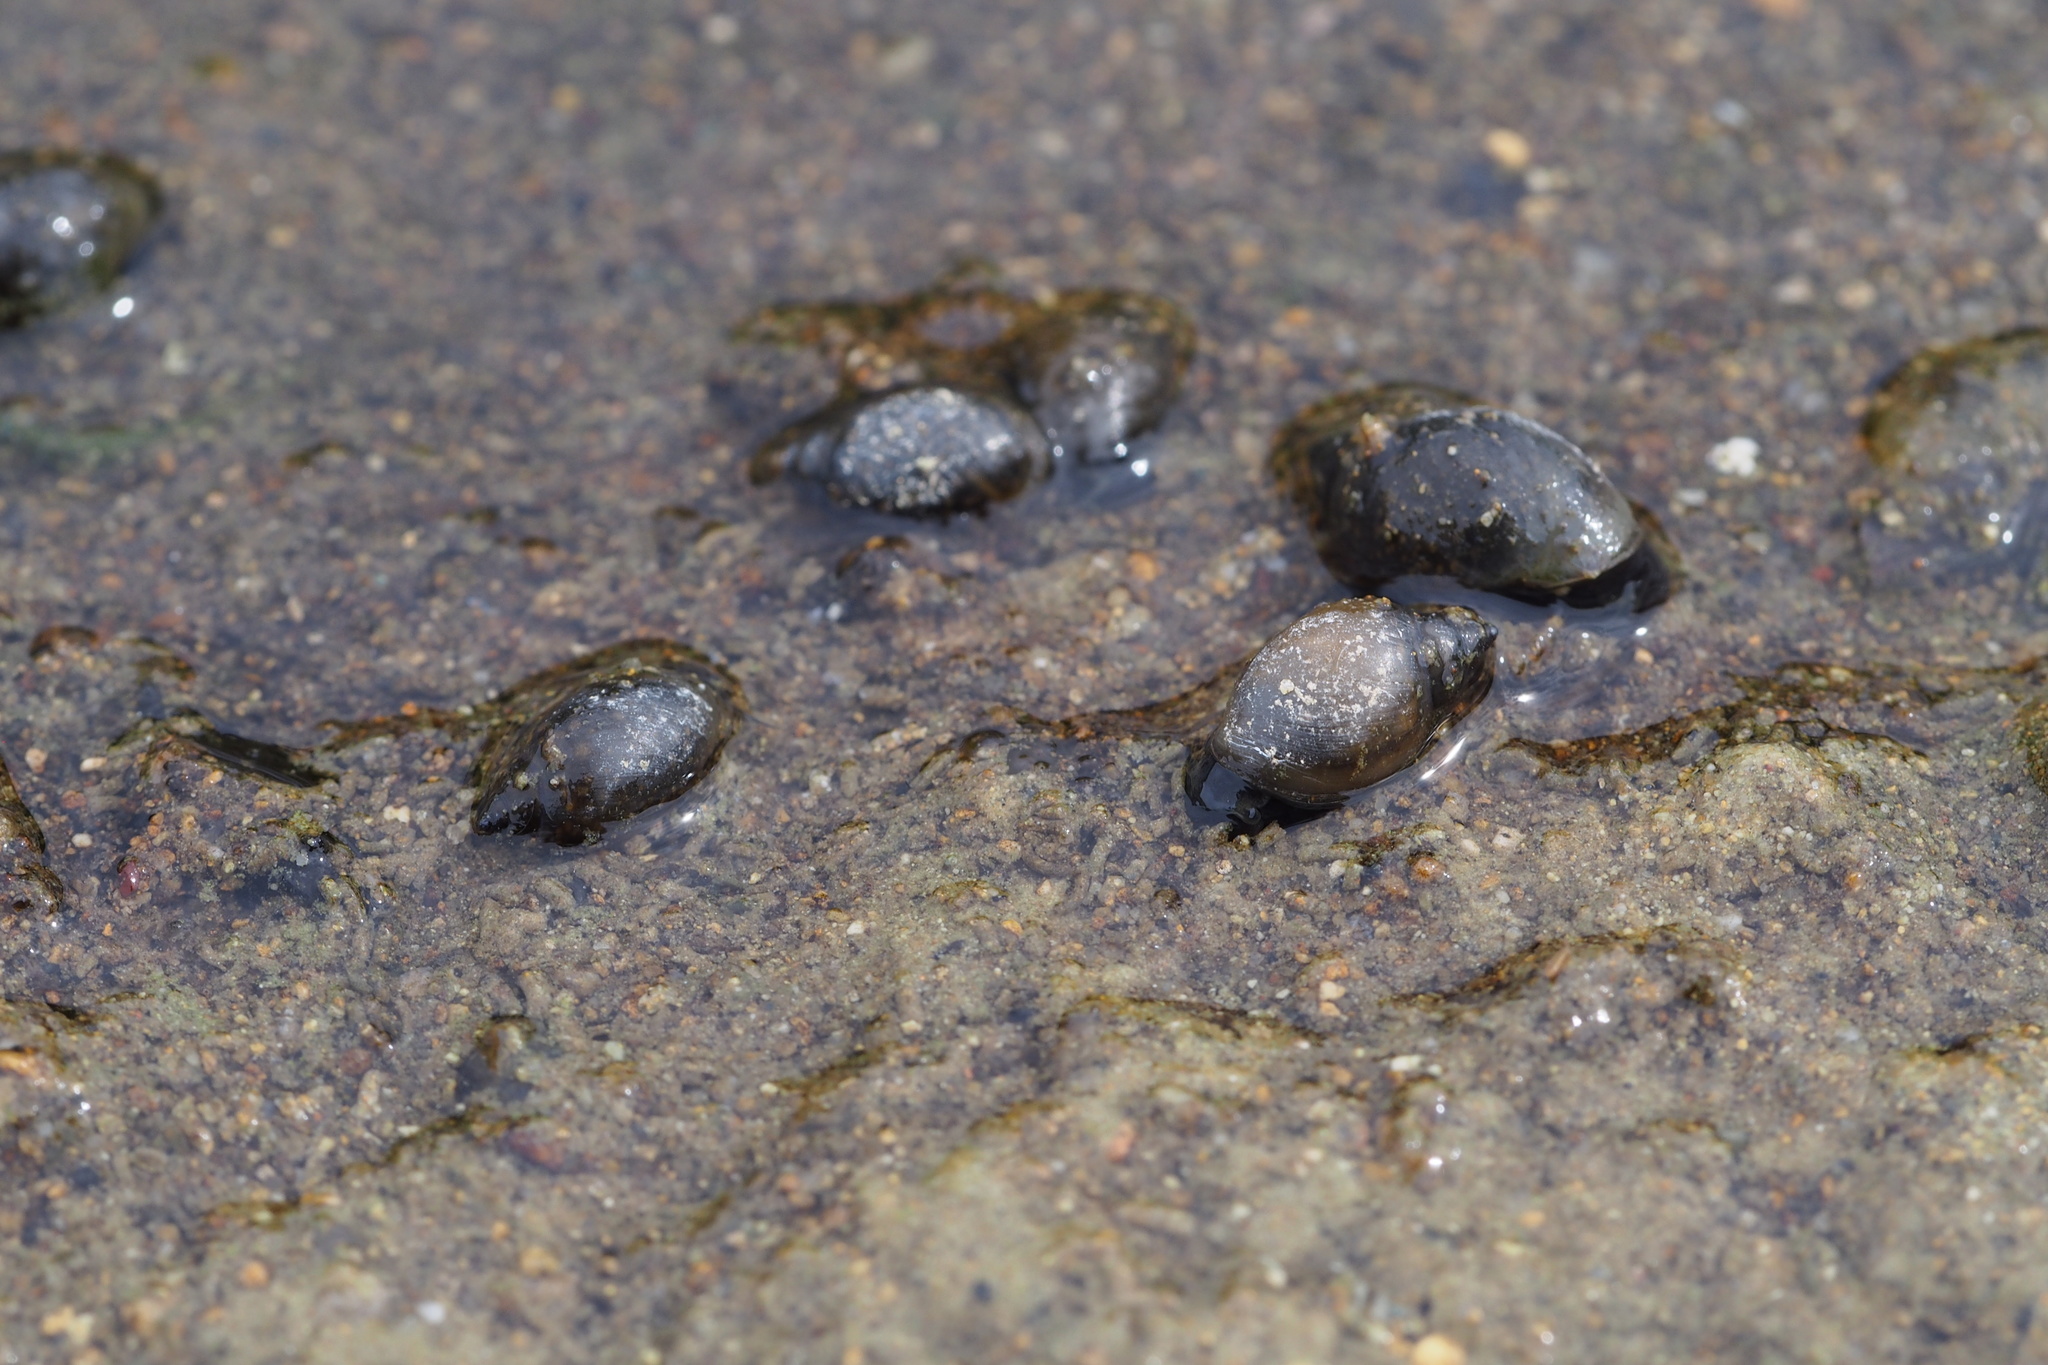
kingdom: Animalia
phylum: Mollusca
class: Gastropoda
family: Physidae
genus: Physella
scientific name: Physella acuta
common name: European physa
